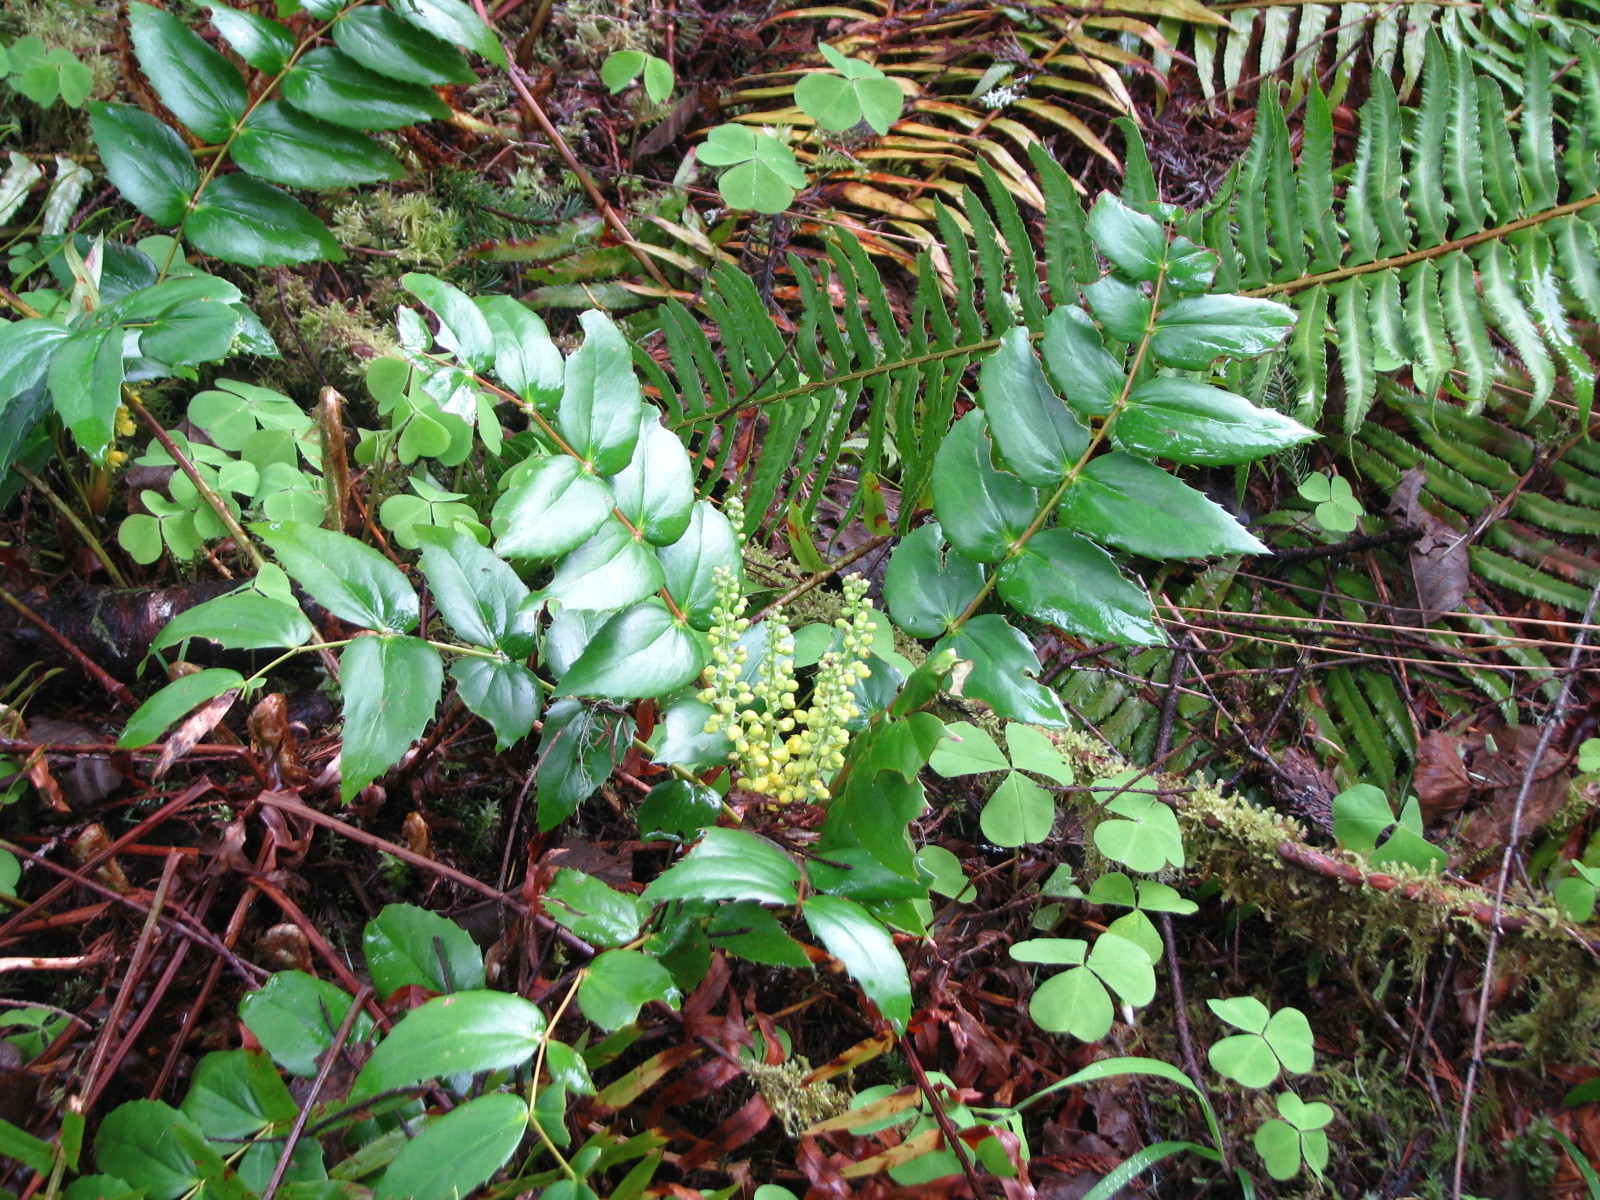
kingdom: Plantae
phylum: Tracheophyta
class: Magnoliopsida
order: Ranunculales
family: Berberidaceae
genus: Mahonia
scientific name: Mahonia nervosa
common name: Cascade oregon-grape
